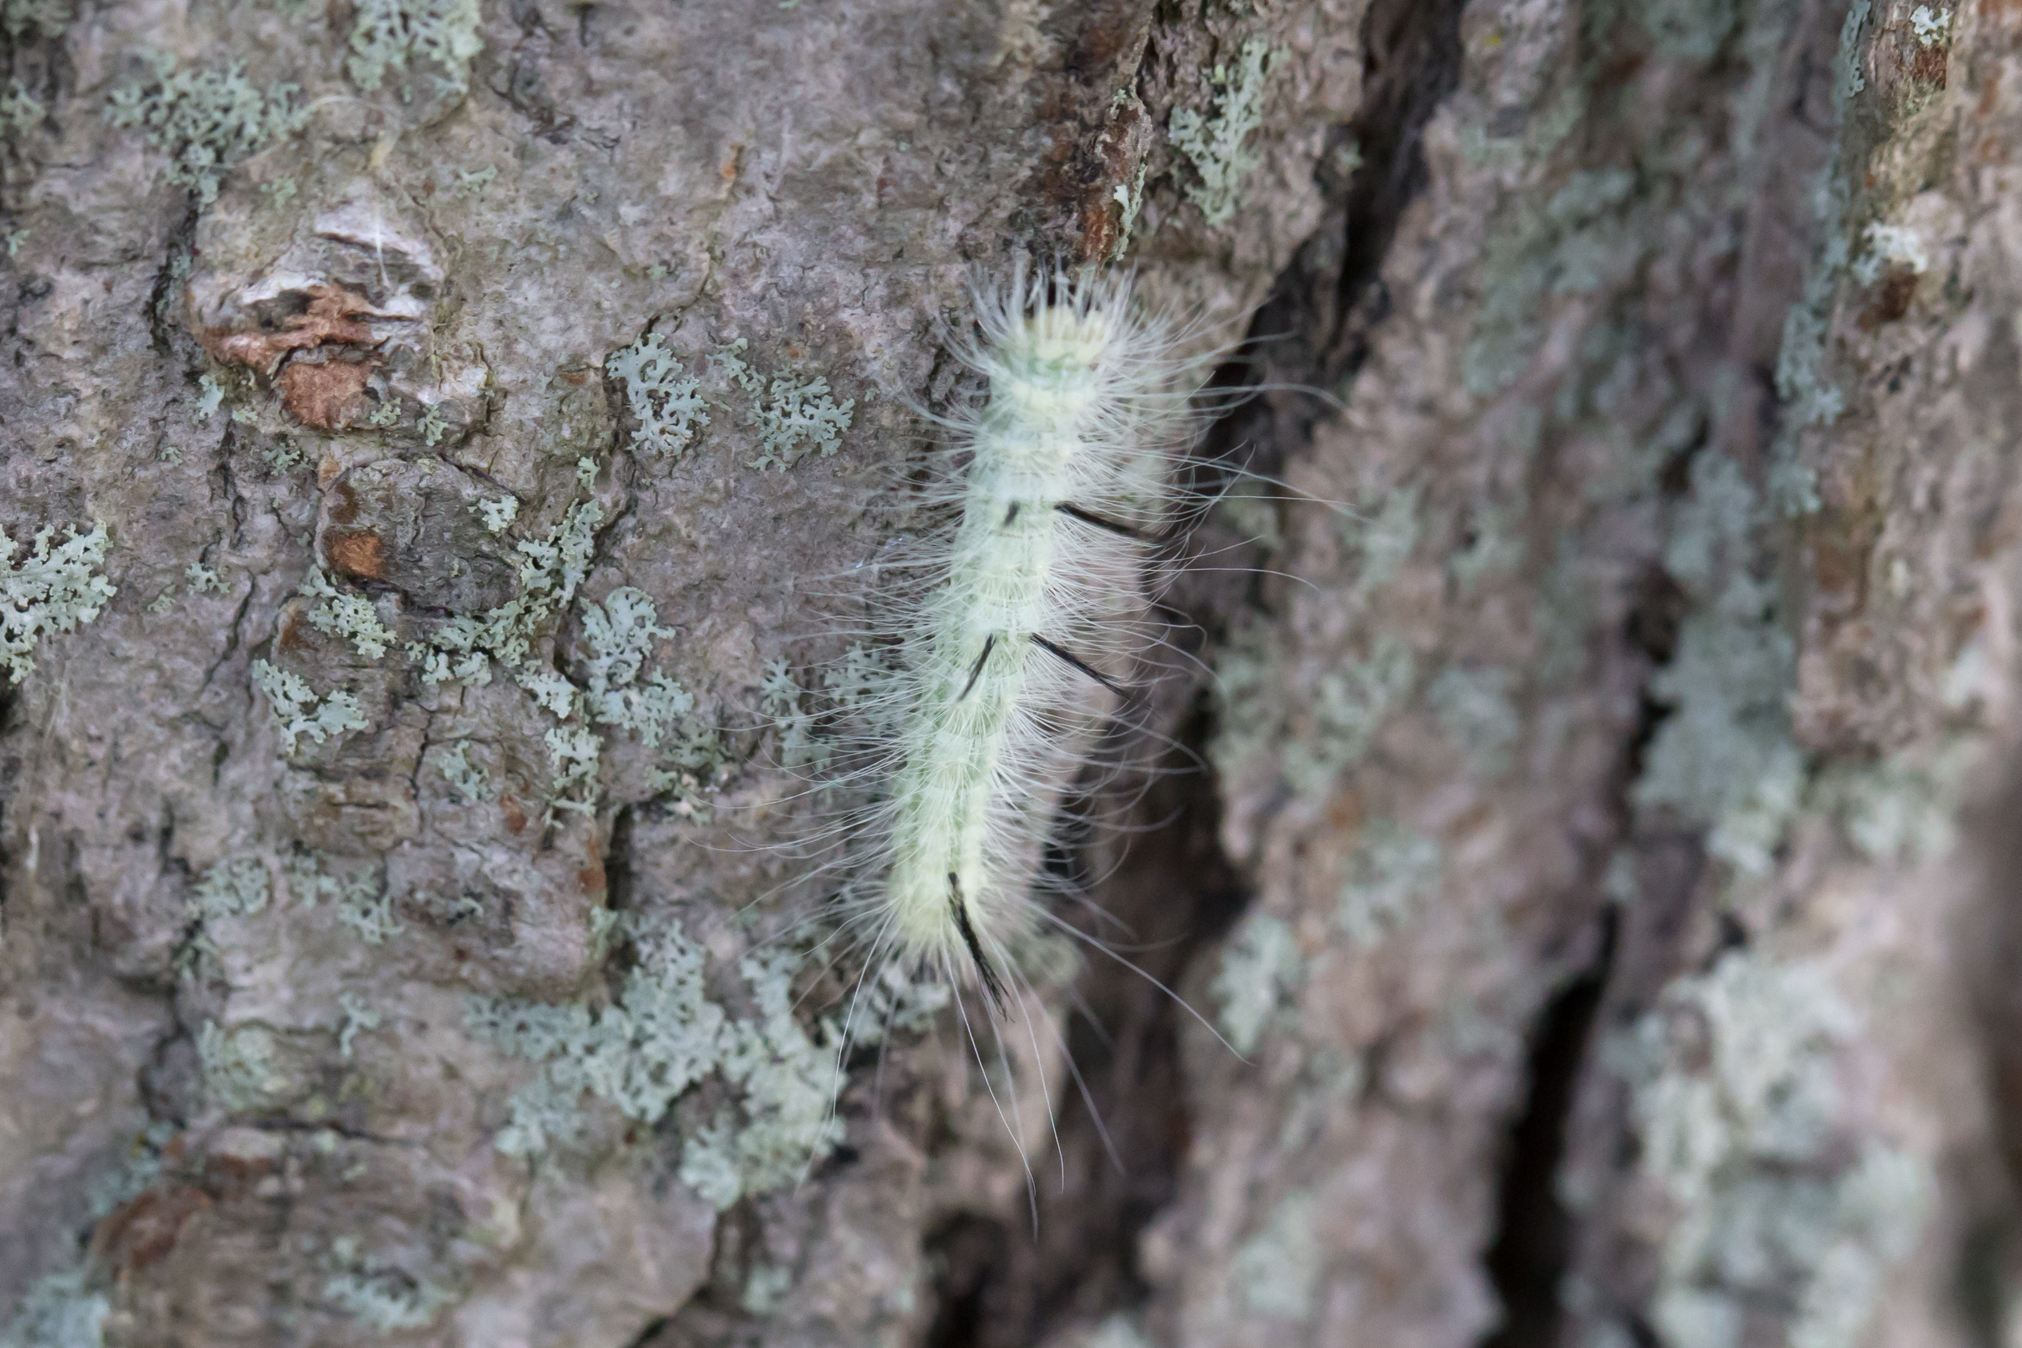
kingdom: Animalia
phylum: Arthropoda
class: Insecta
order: Lepidoptera
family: Noctuidae
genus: Acronicta
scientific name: Acronicta americana
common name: American dagger
